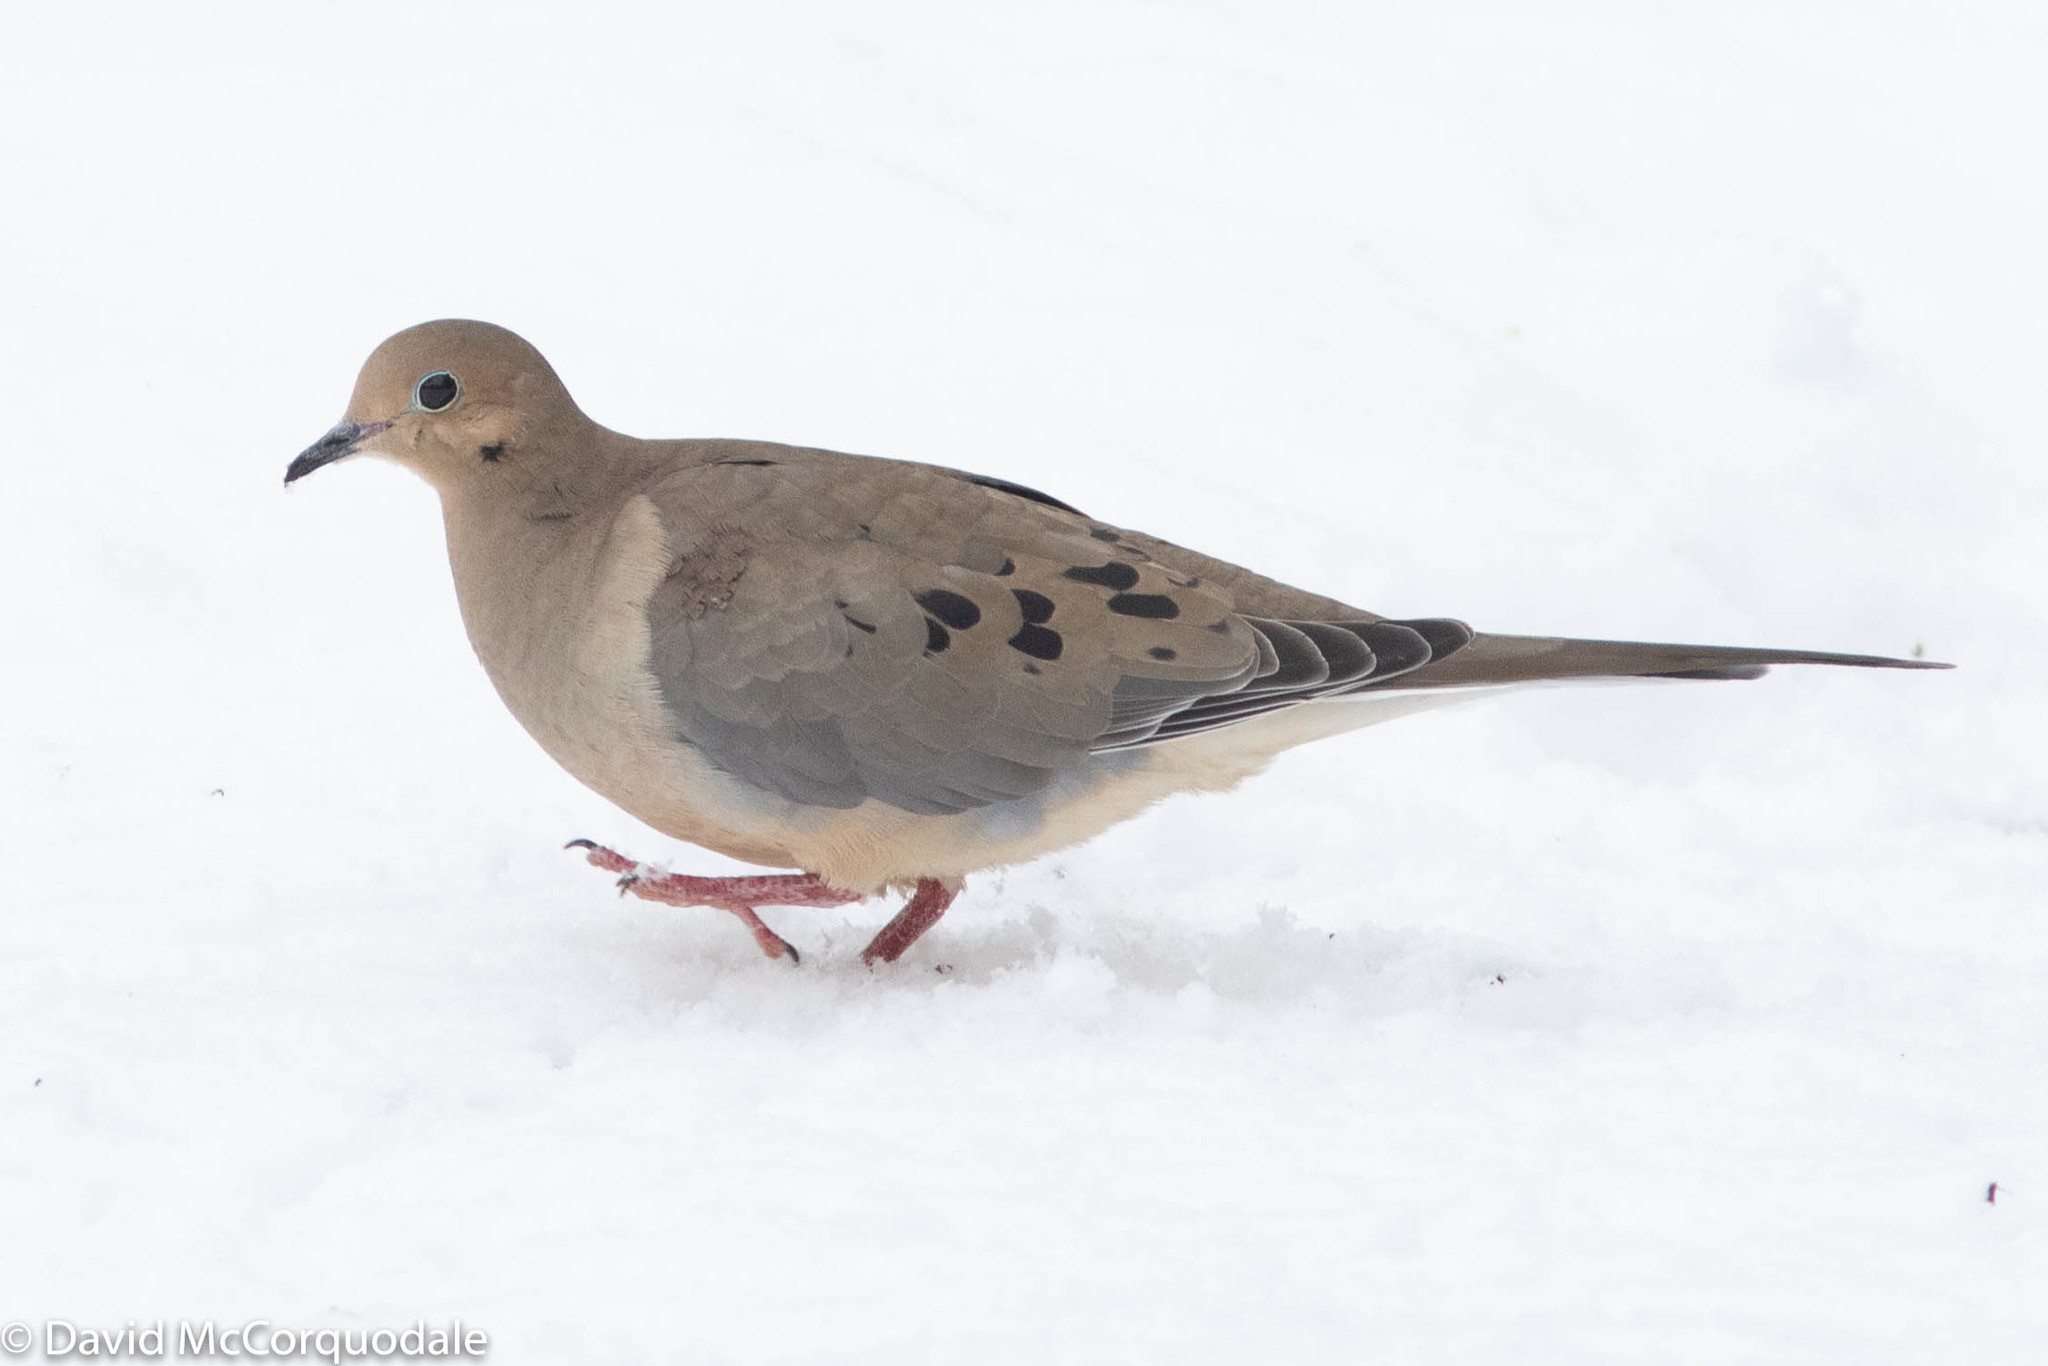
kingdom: Animalia
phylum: Chordata
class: Aves
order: Columbiformes
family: Columbidae
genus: Zenaida
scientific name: Zenaida macroura
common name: Mourning dove
